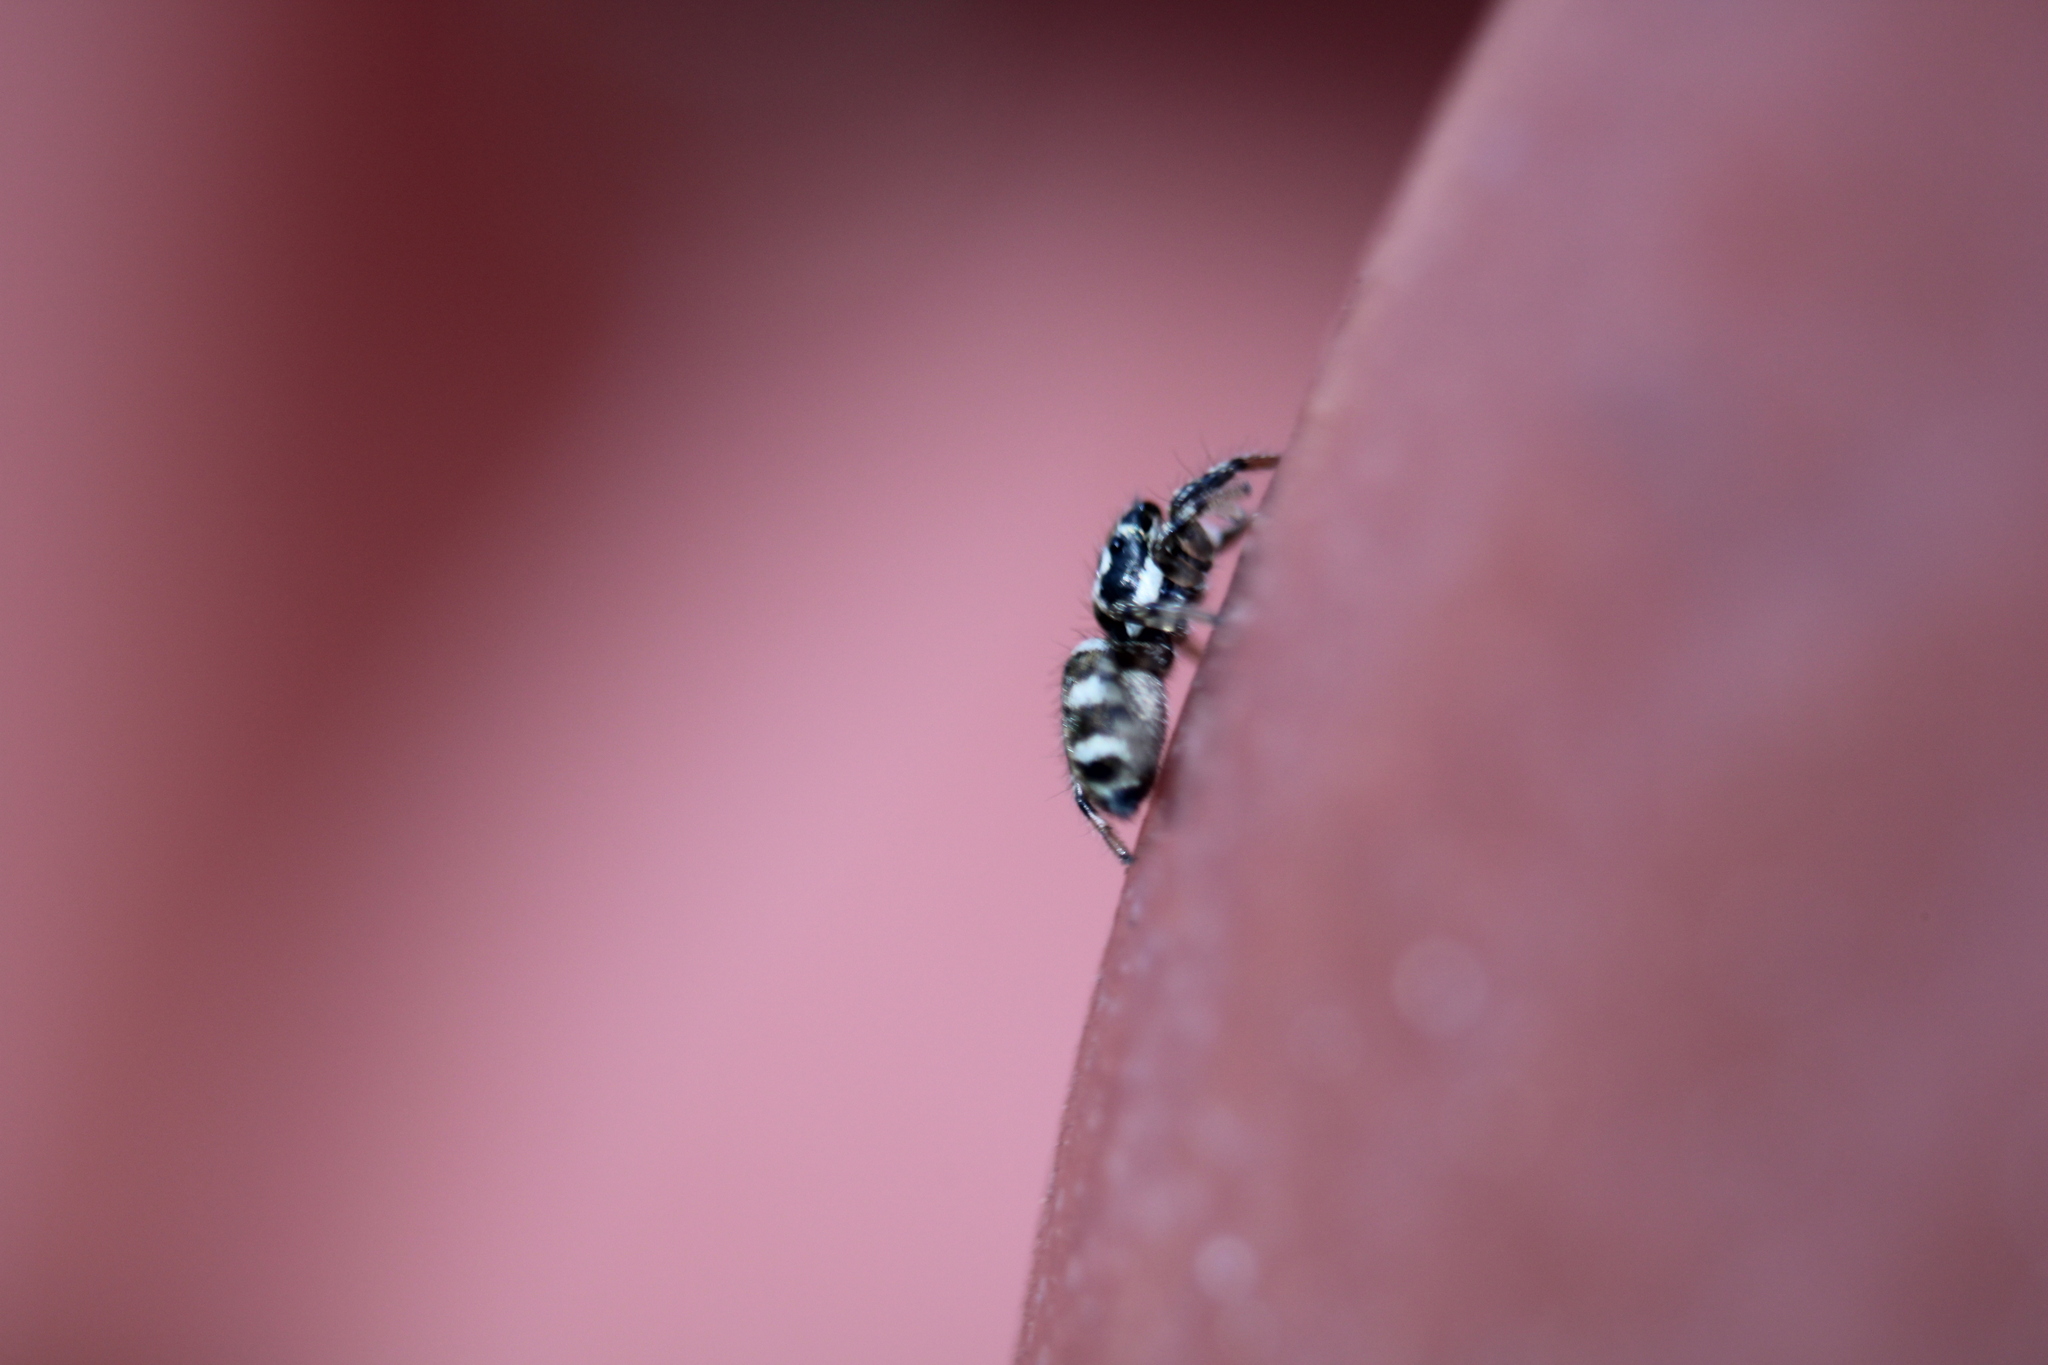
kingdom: Animalia
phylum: Arthropoda
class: Arachnida
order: Araneae
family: Salticidae
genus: Salticus
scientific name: Salticus scenicus
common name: Zebra jumper
